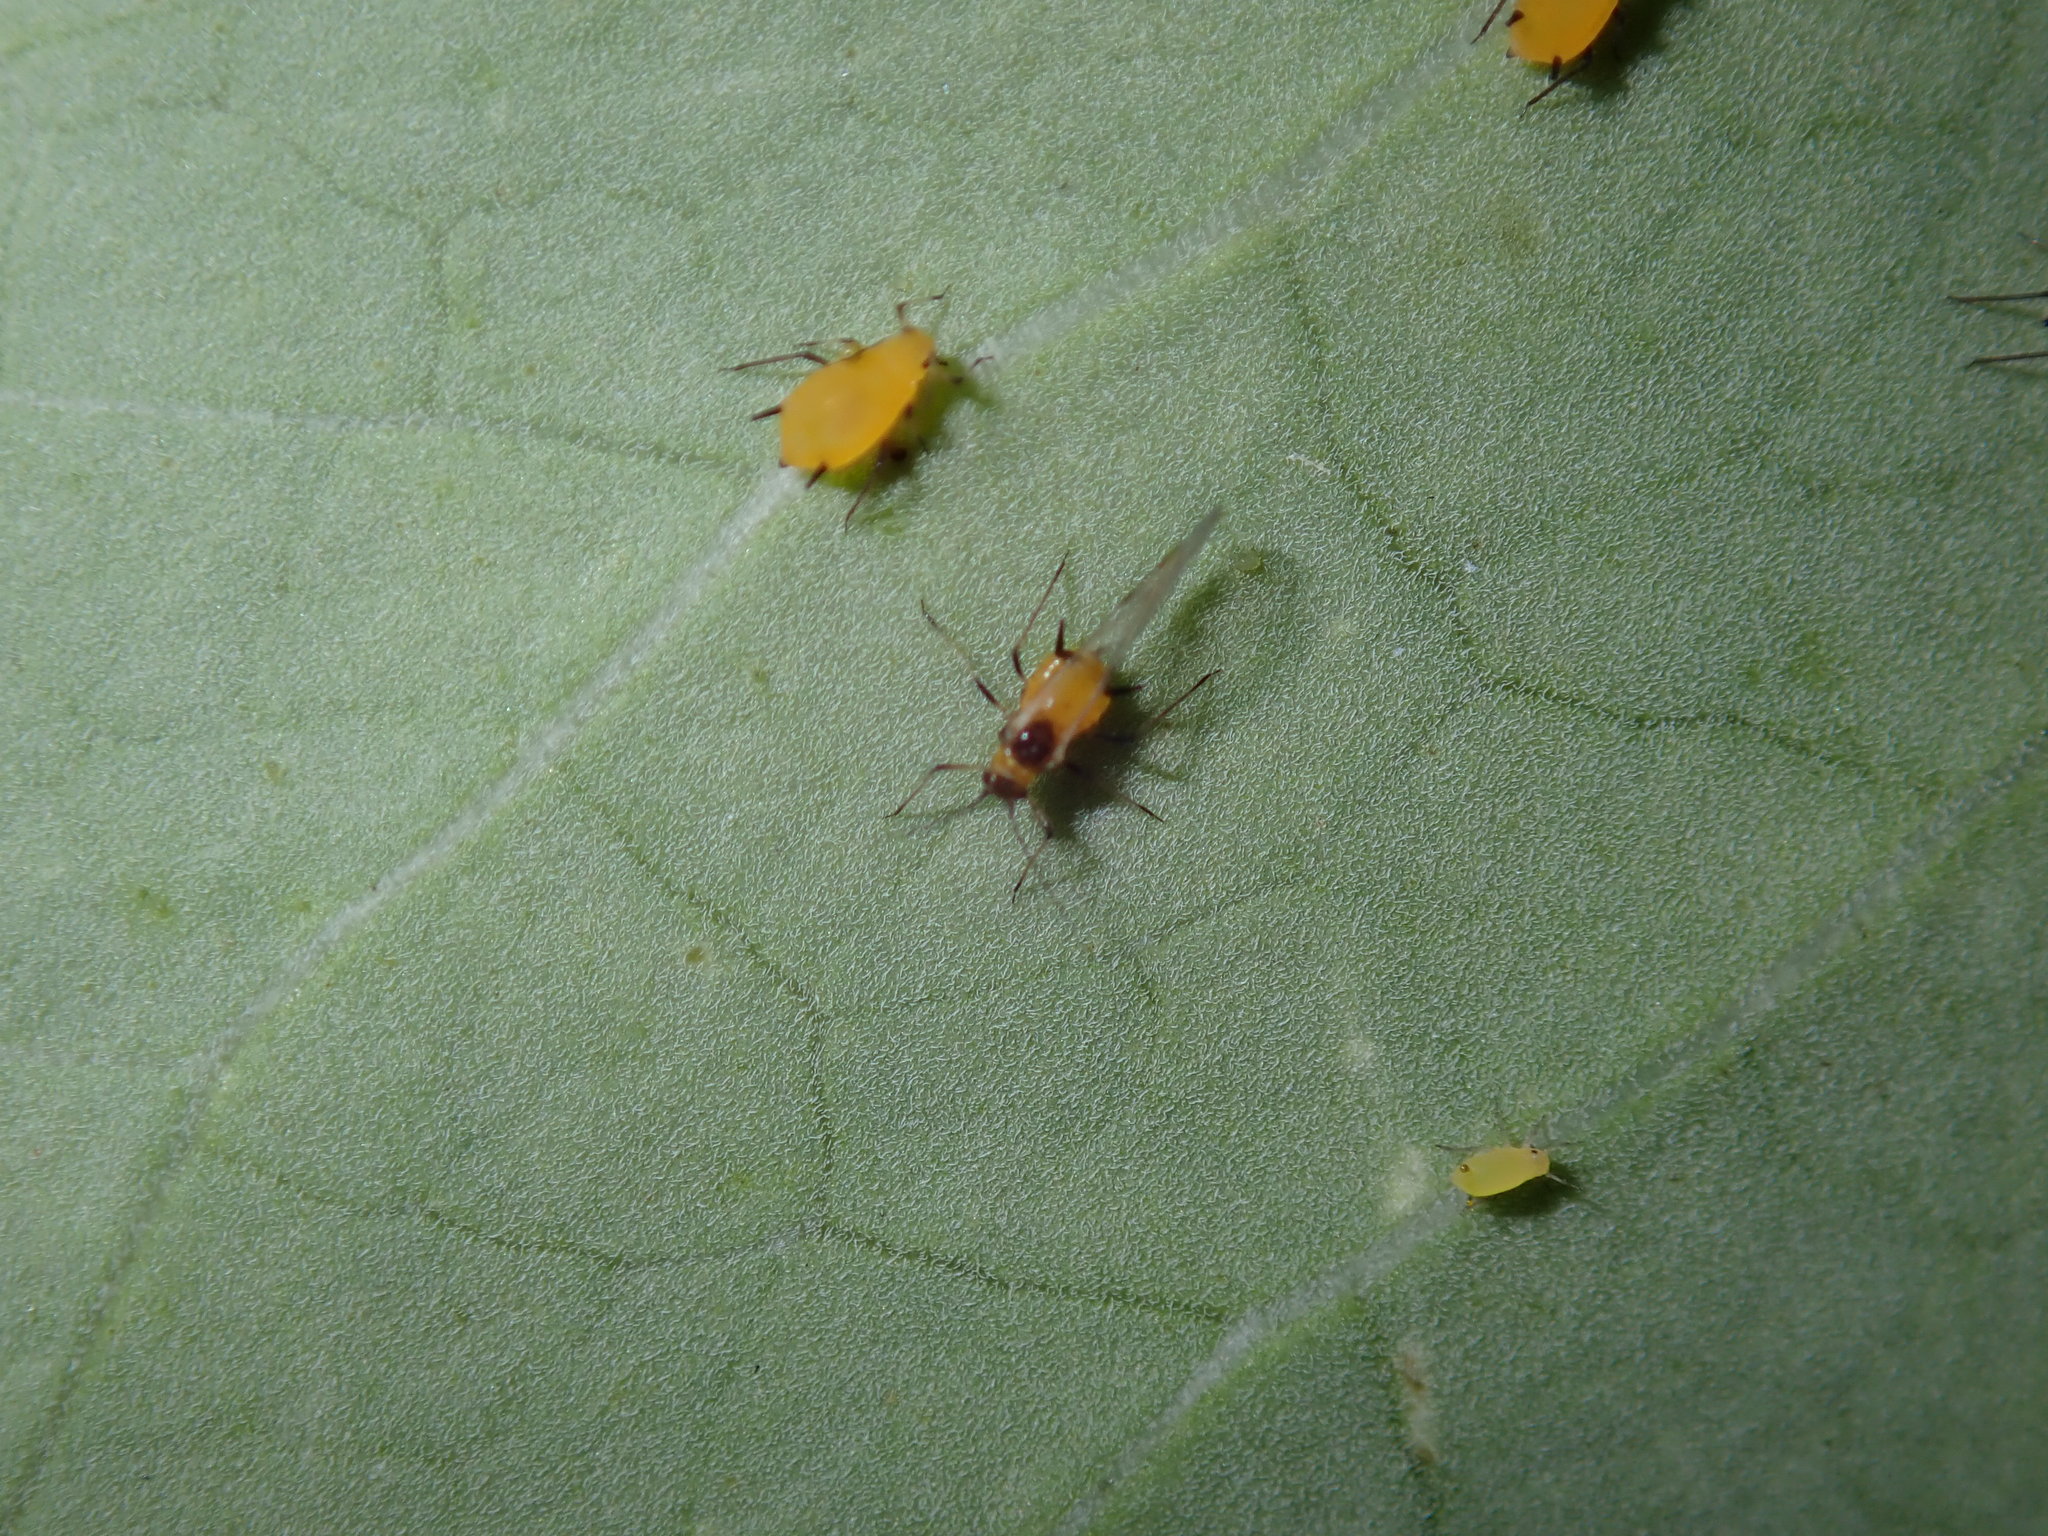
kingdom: Animalia
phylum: Arthropoda
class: Insecta
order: Hemiptera
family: Aphididae
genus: Aphis
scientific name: Aphis nerii
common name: Oleander aphid
